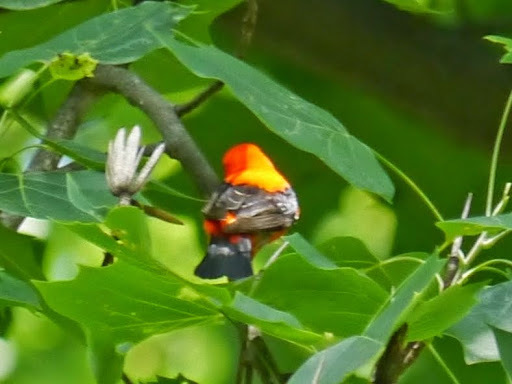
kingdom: Animalia
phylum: Chordata
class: Aves
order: Passeriformes
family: Cardinalidae
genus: Piranga
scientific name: Piranga olivacea
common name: Scarlet tanager
